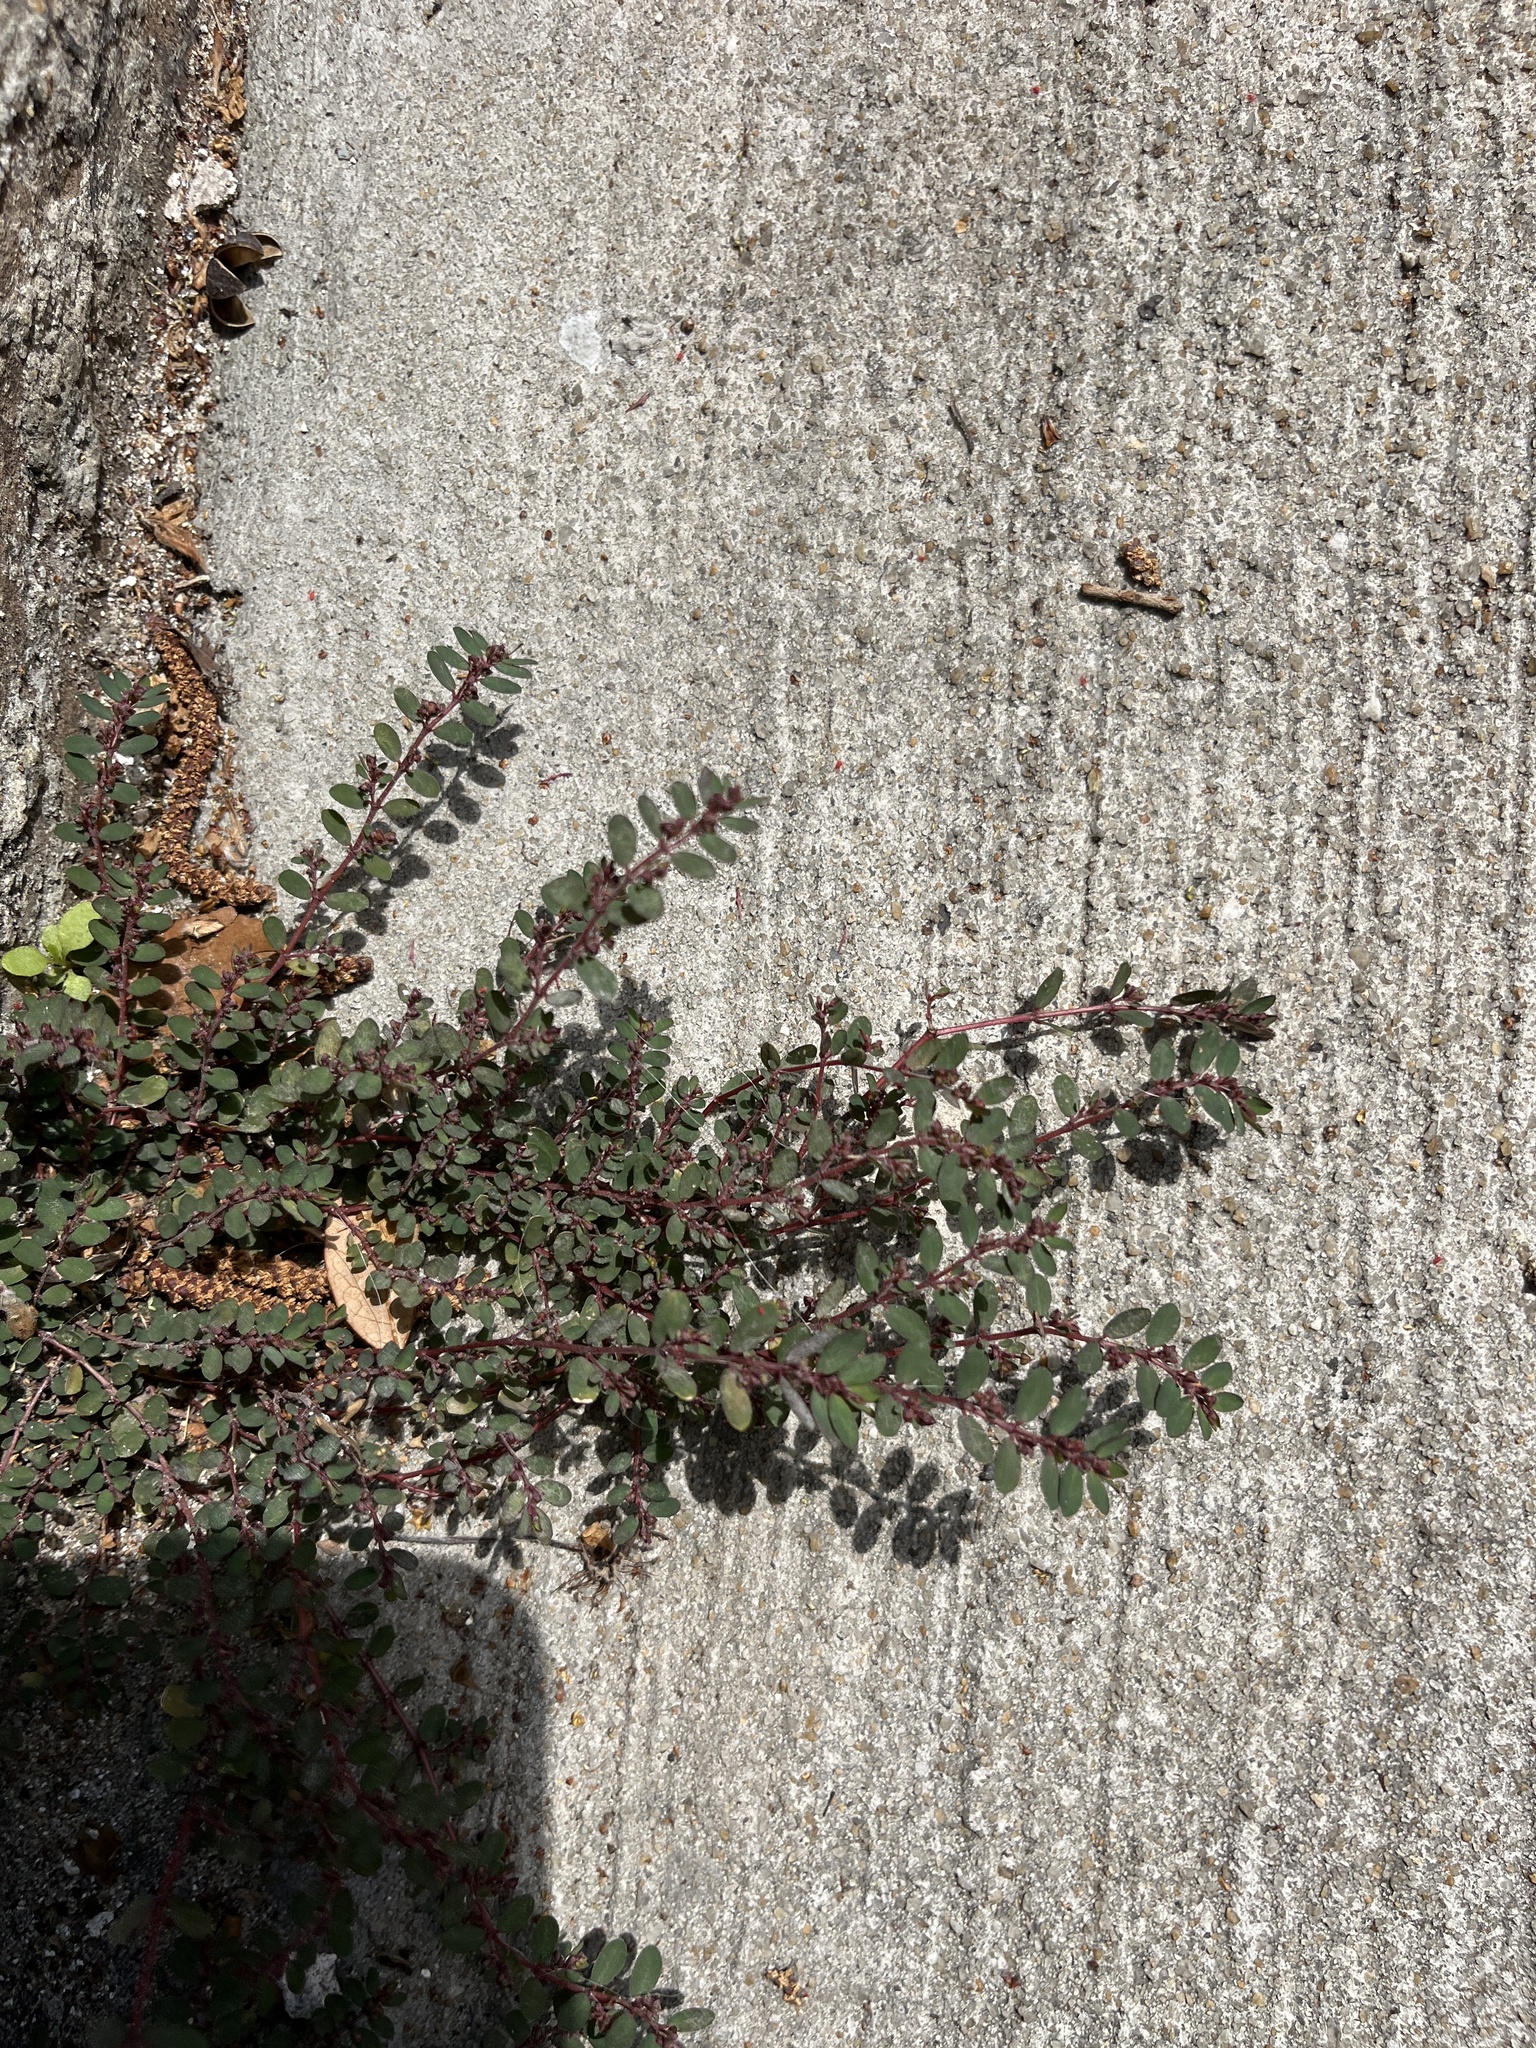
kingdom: Plantae
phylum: Tracheophyta
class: Magnoliopsida
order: Malpighiales
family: Euphorbiaceae
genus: Euphorbia
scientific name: Euphorbia prostrata
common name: Prostrate sandmat
